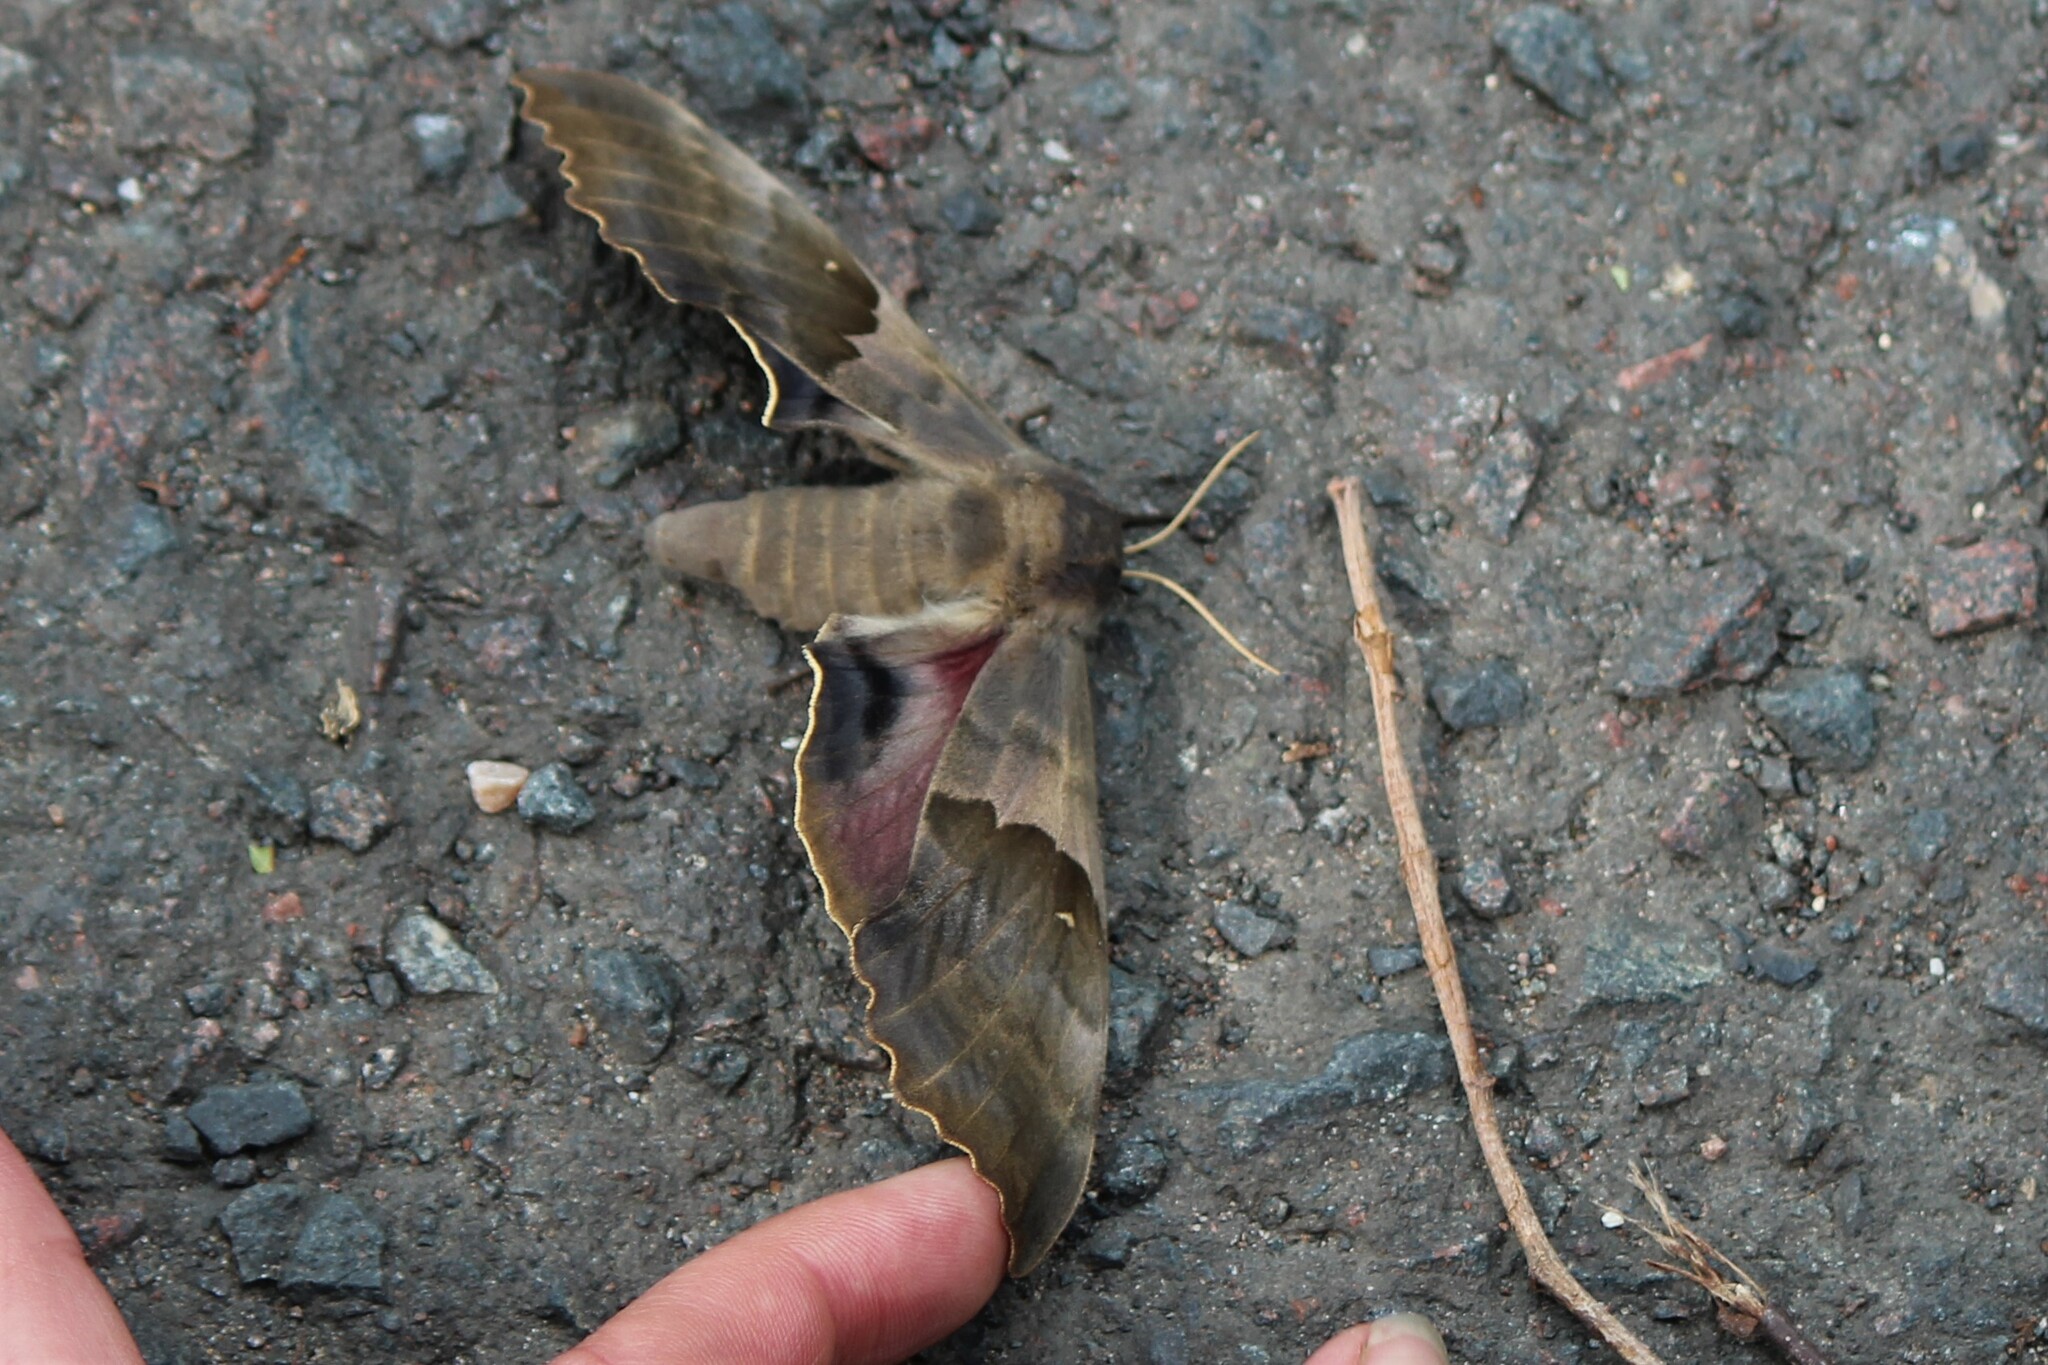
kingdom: Animalia
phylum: Arthropoda
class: Insecta
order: Lepidoptera
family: Sphingidae
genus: Pachysphinx
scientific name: Pachysphinx modesta
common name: Big poplar sphinx
